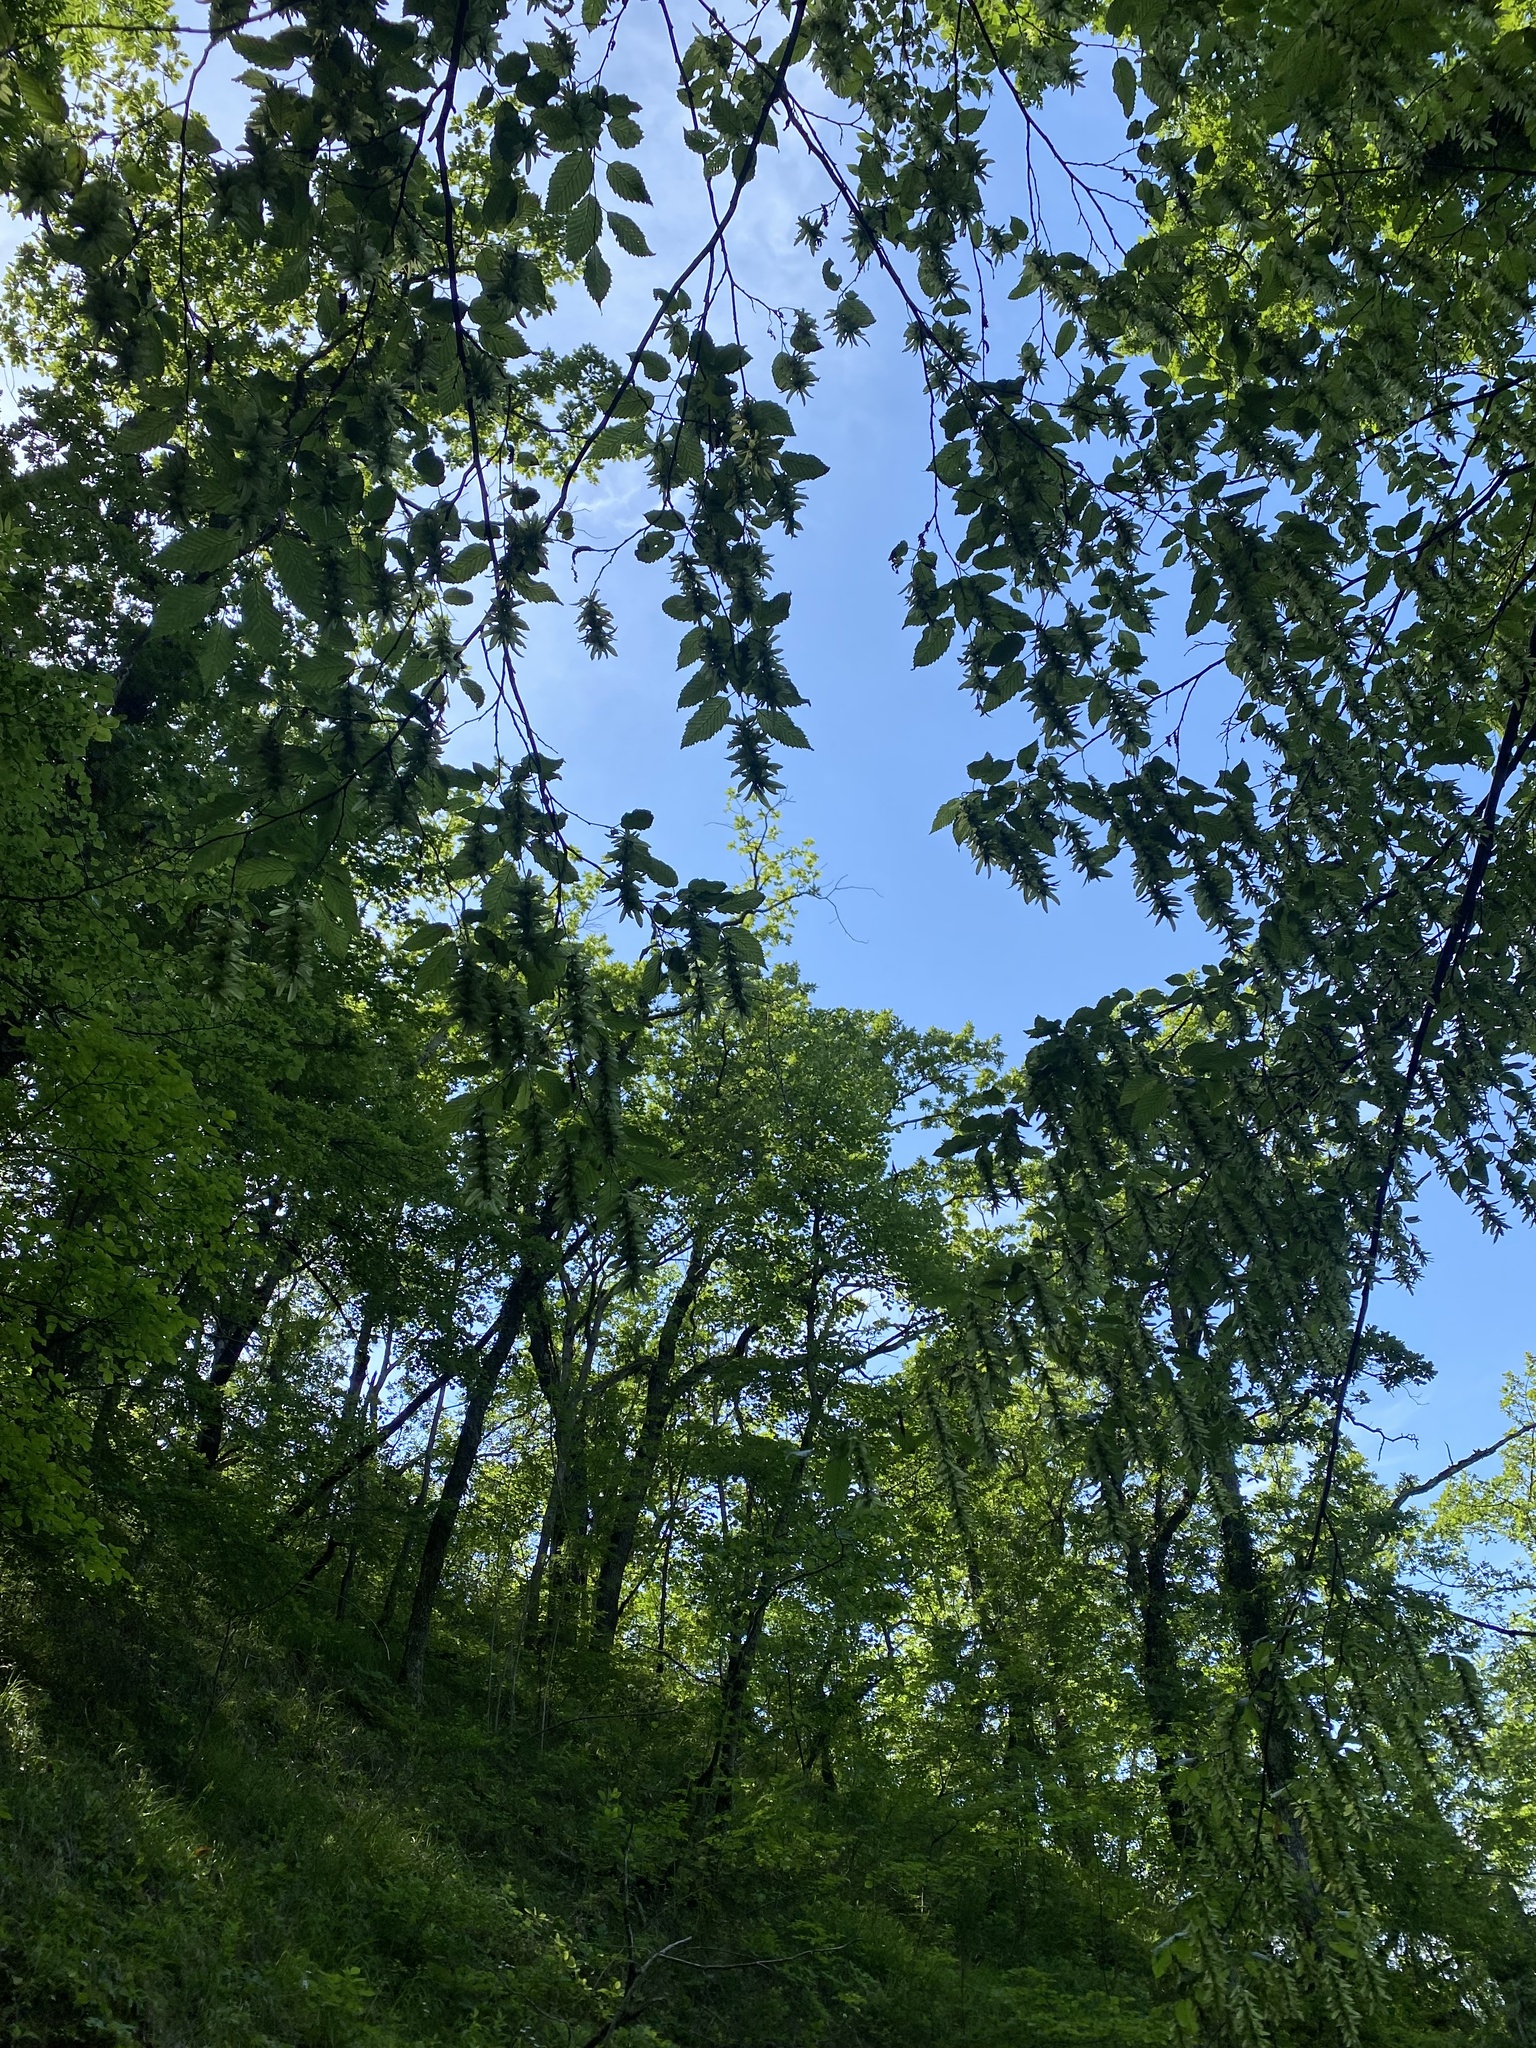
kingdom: Plantae
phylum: Tracheophyta
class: Magnoliopsida
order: Fagales
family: Betulaceae
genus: Carpinus
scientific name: Carpinus betulus
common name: Hornbeam
